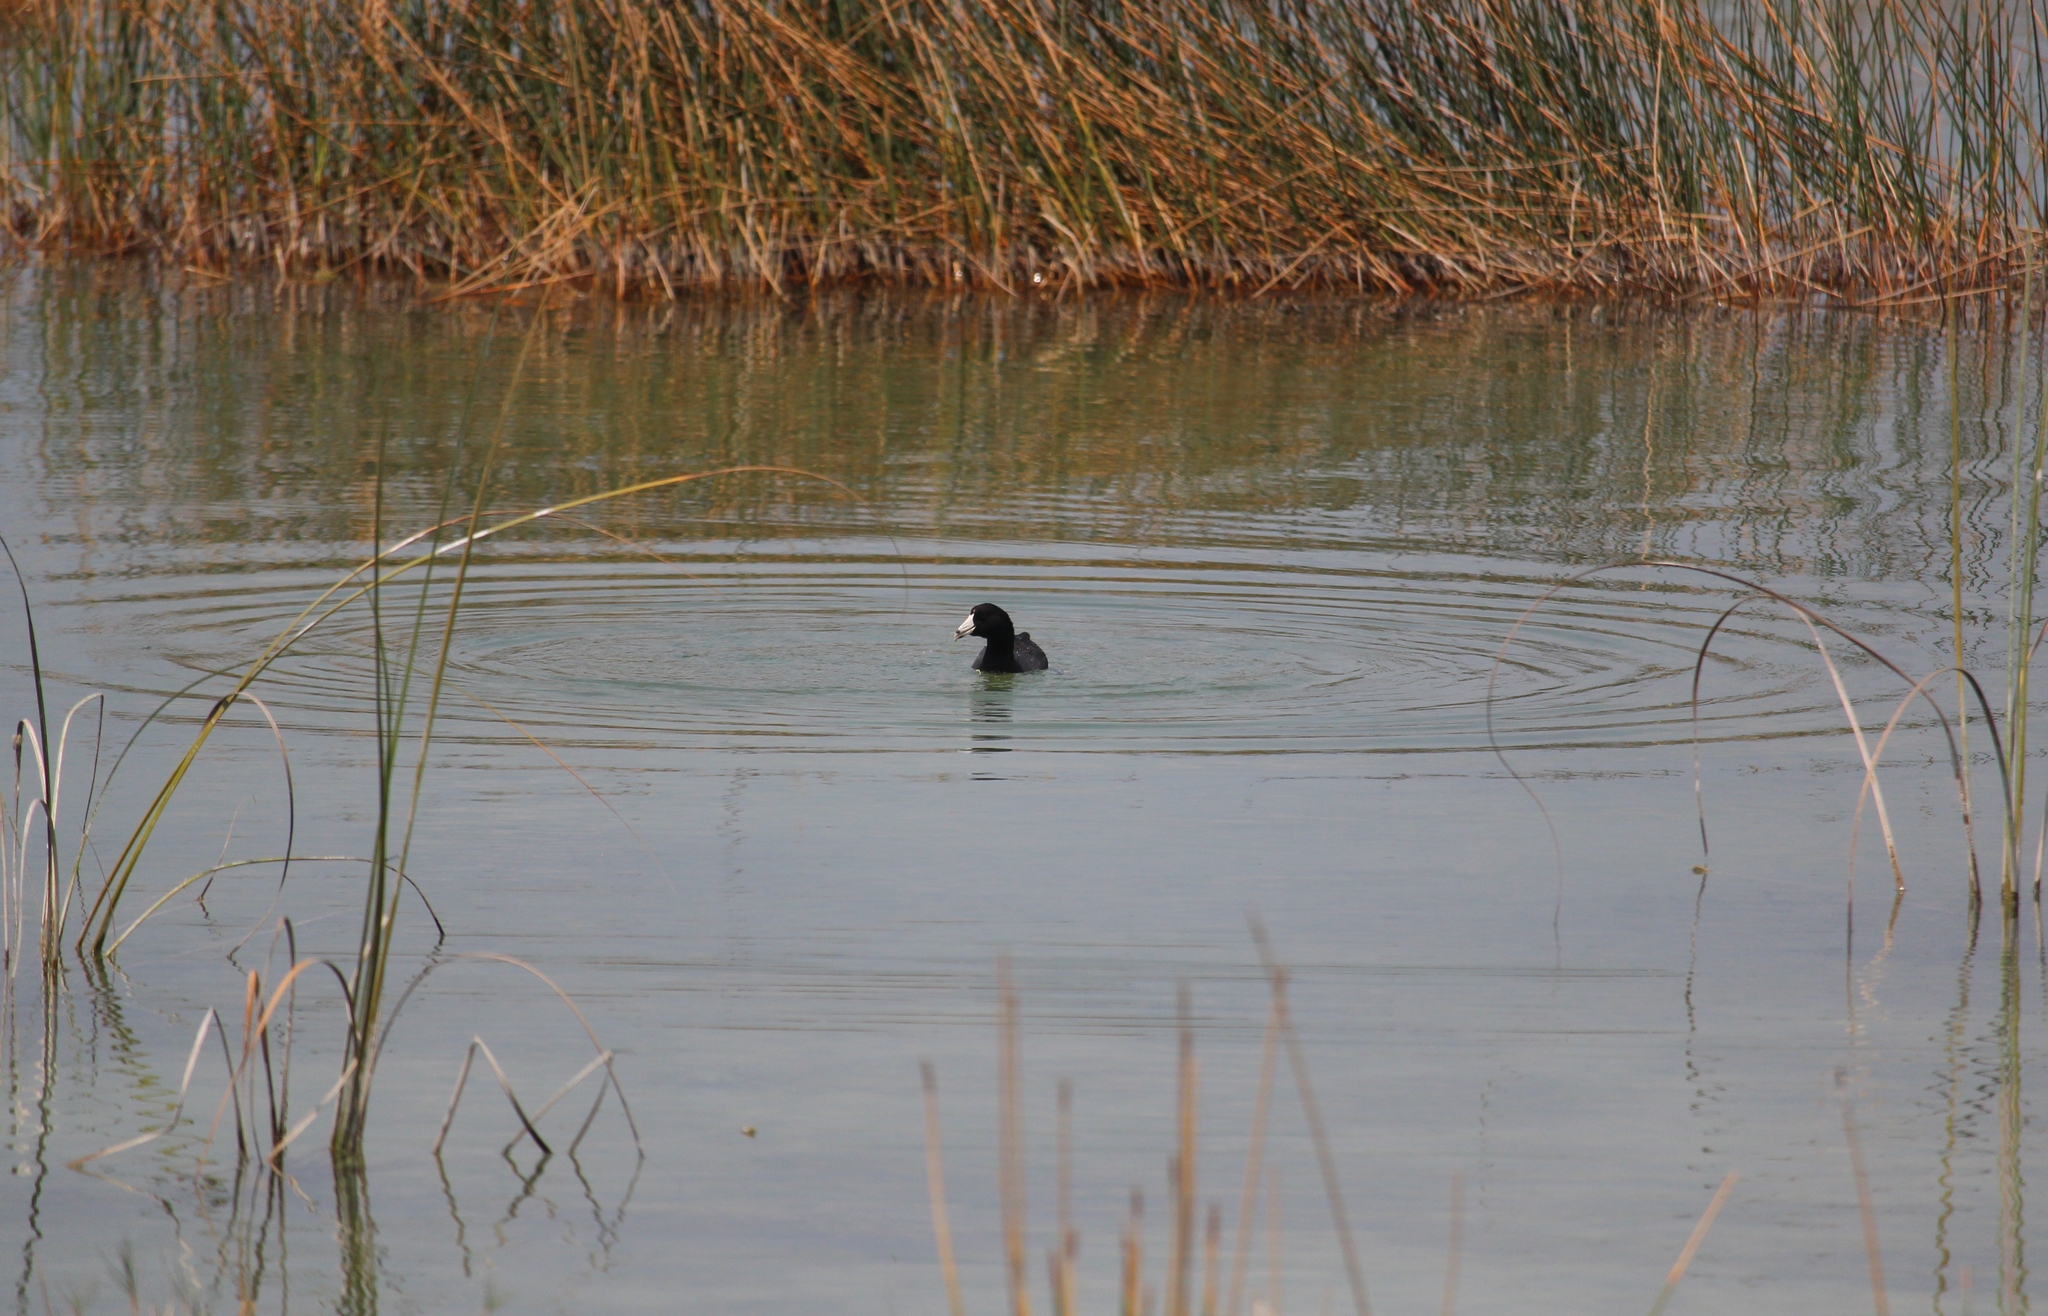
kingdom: Animalia
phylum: Chordata
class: Aves
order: Gruiformes
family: Rallidae
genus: Fulica
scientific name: Fulica americana
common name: American coot
